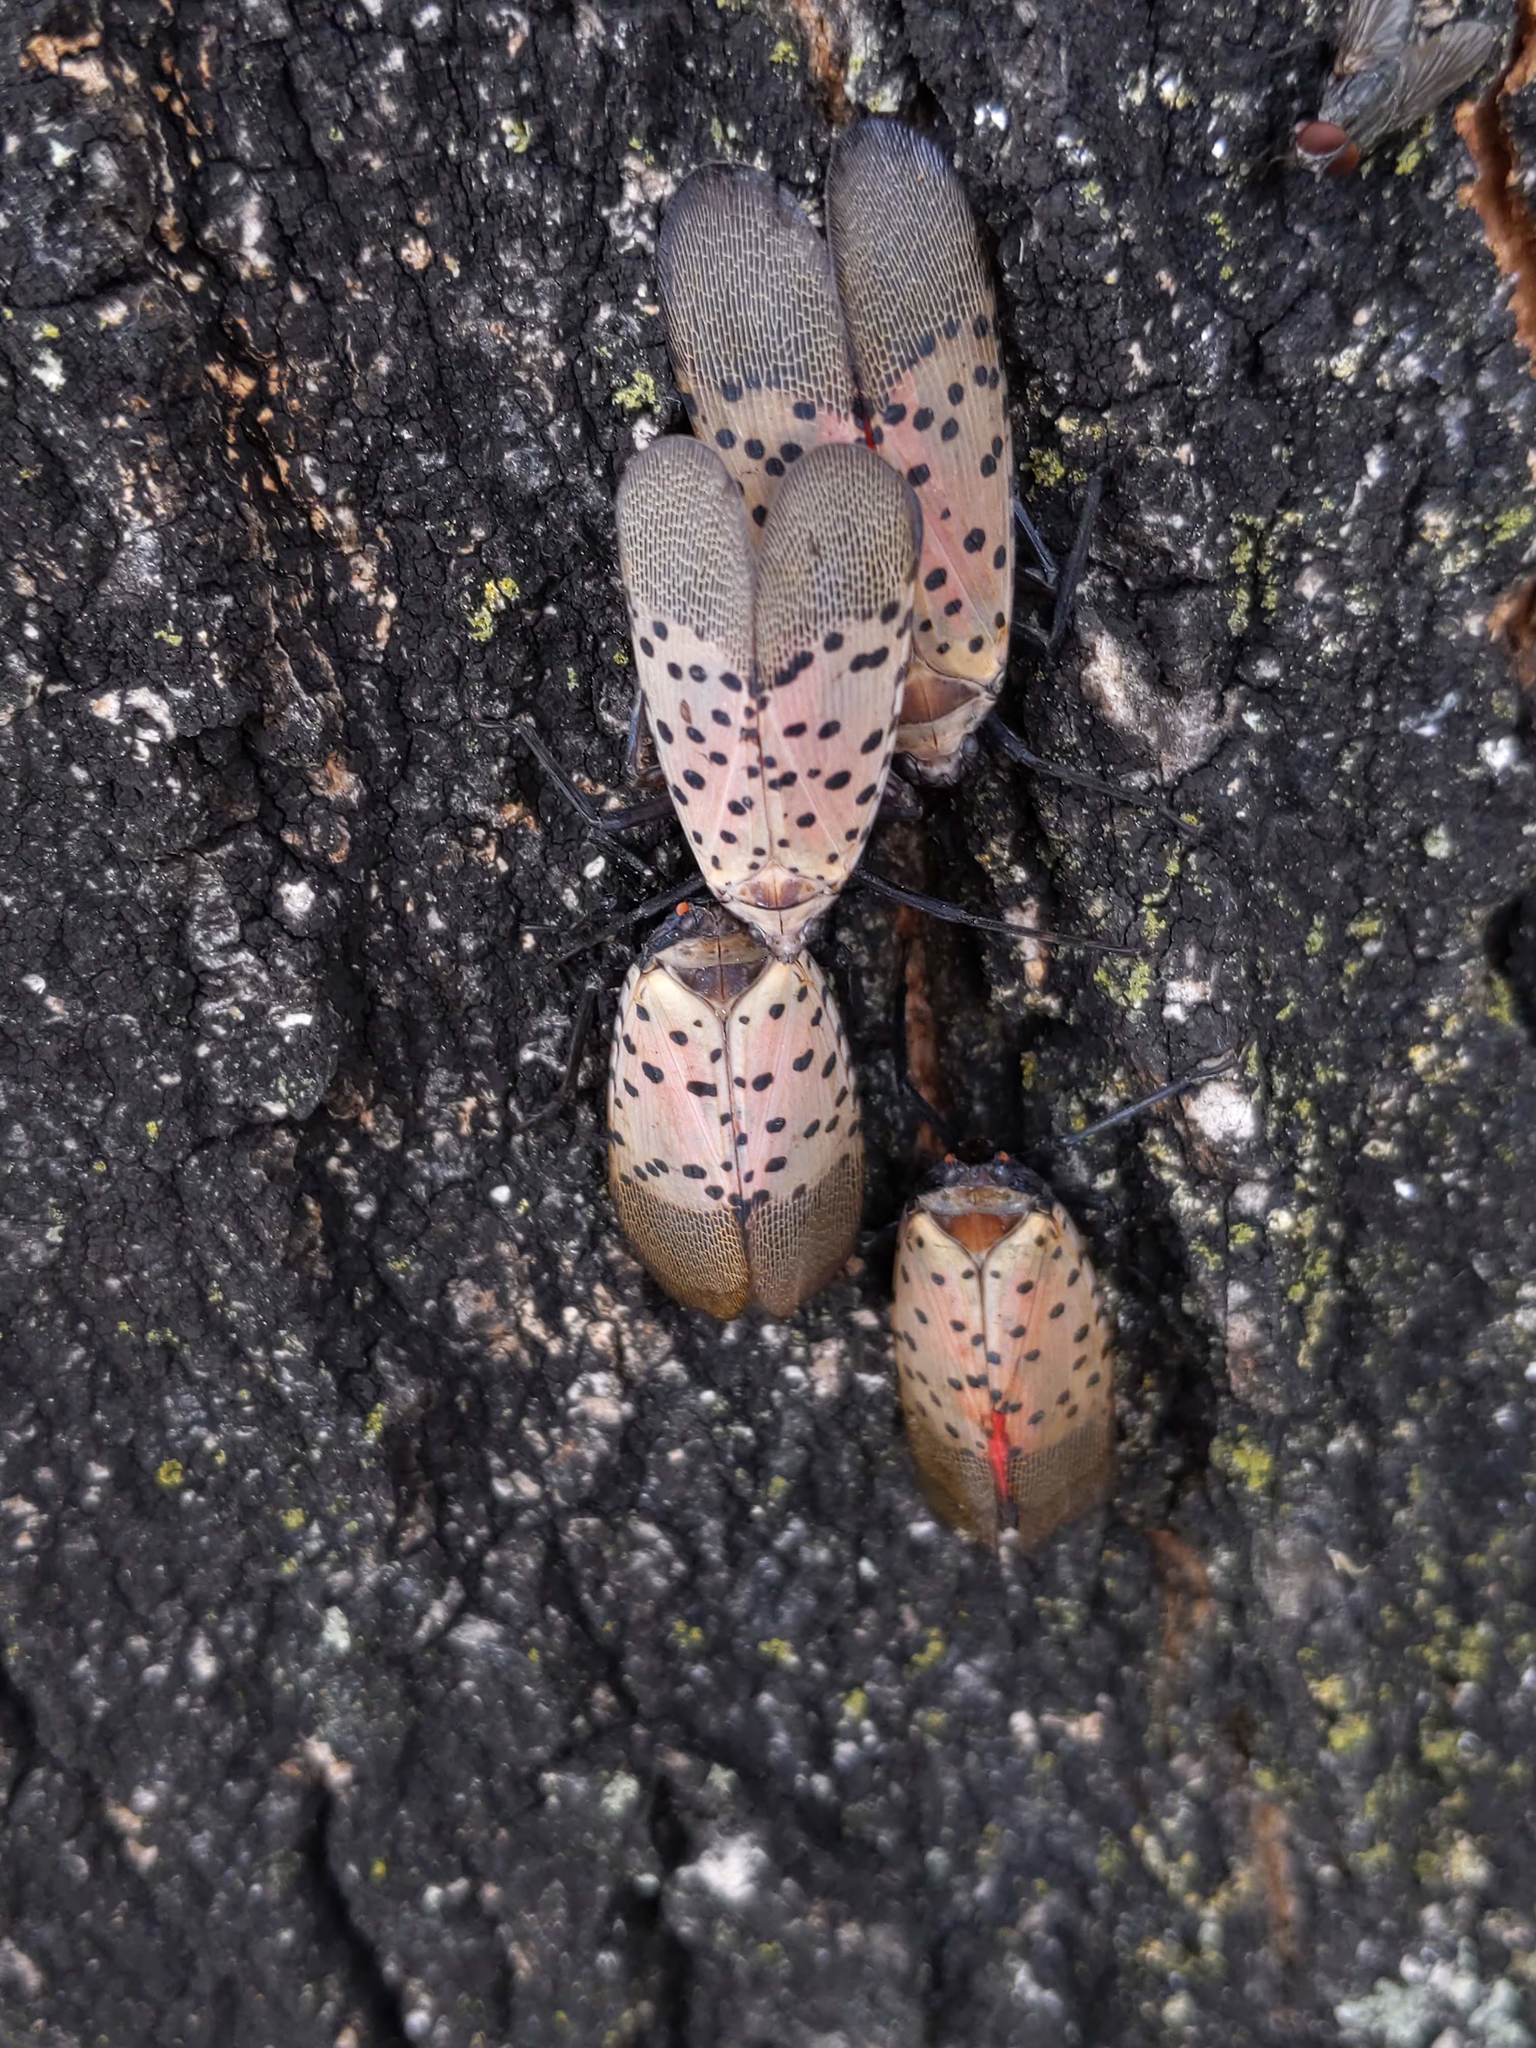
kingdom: Animalia
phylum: Arthropoda
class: Insecta
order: Hemiptera
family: Fulgoridae
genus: Lycorma
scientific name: Lycorma delicatula
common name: Spotted lanternfly
